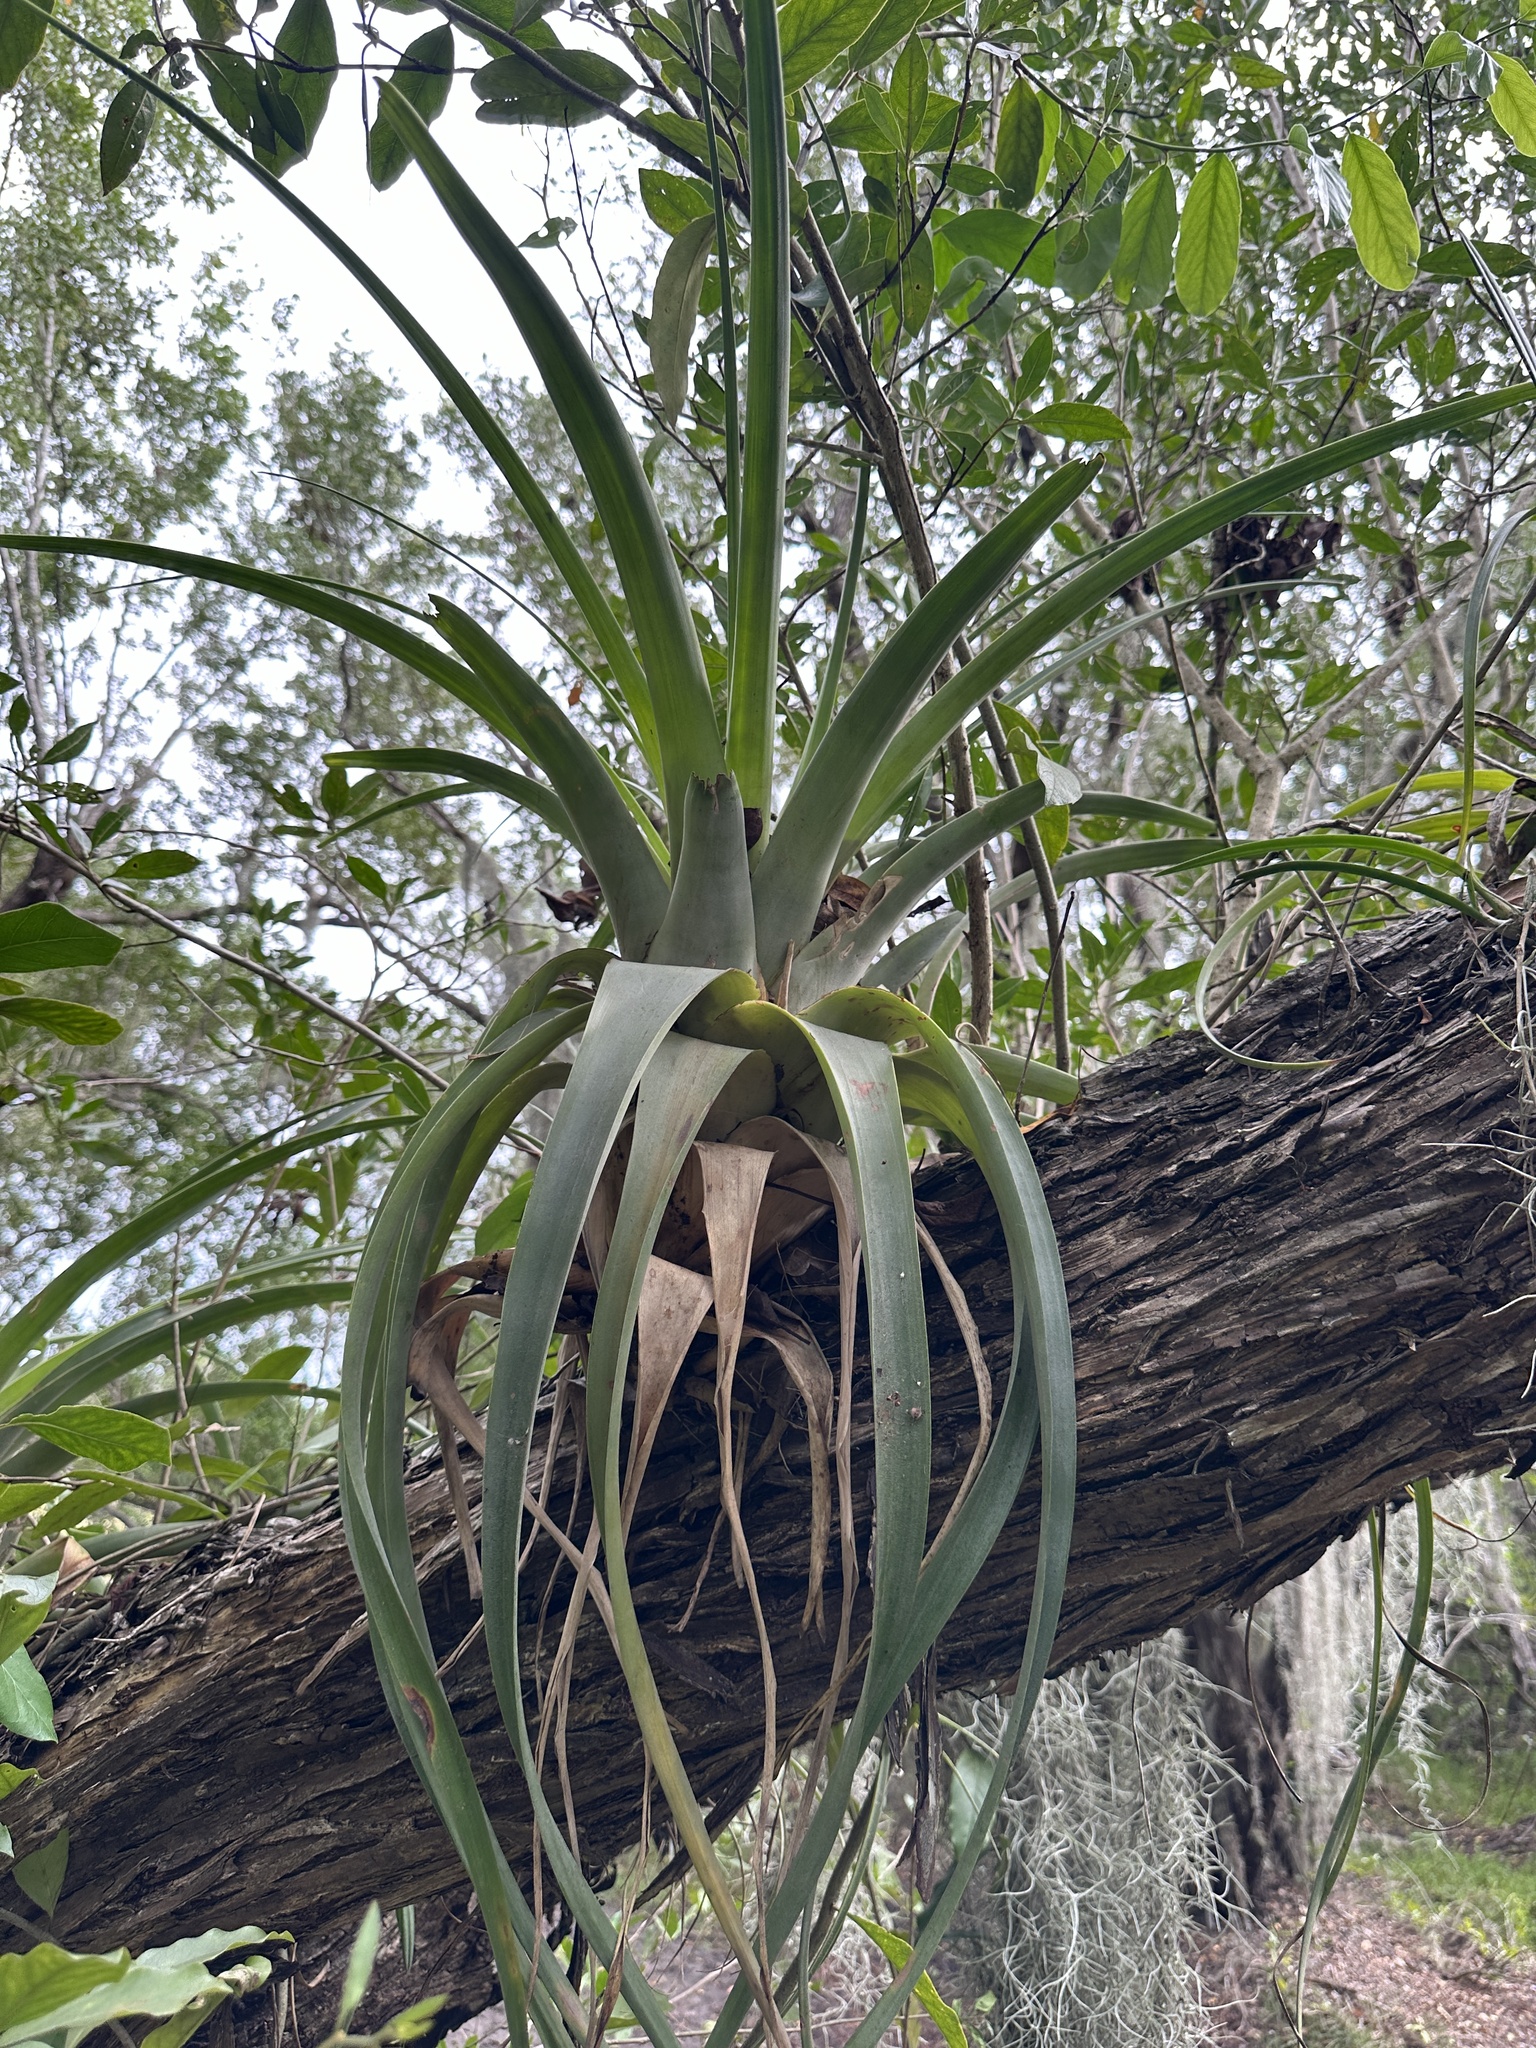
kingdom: Plantae
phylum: Tracheophyta
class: Liliopsida
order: Poales
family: Bromeliaceae
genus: Tillandsia
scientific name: Tillandsia utriculata
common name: Wild pine
